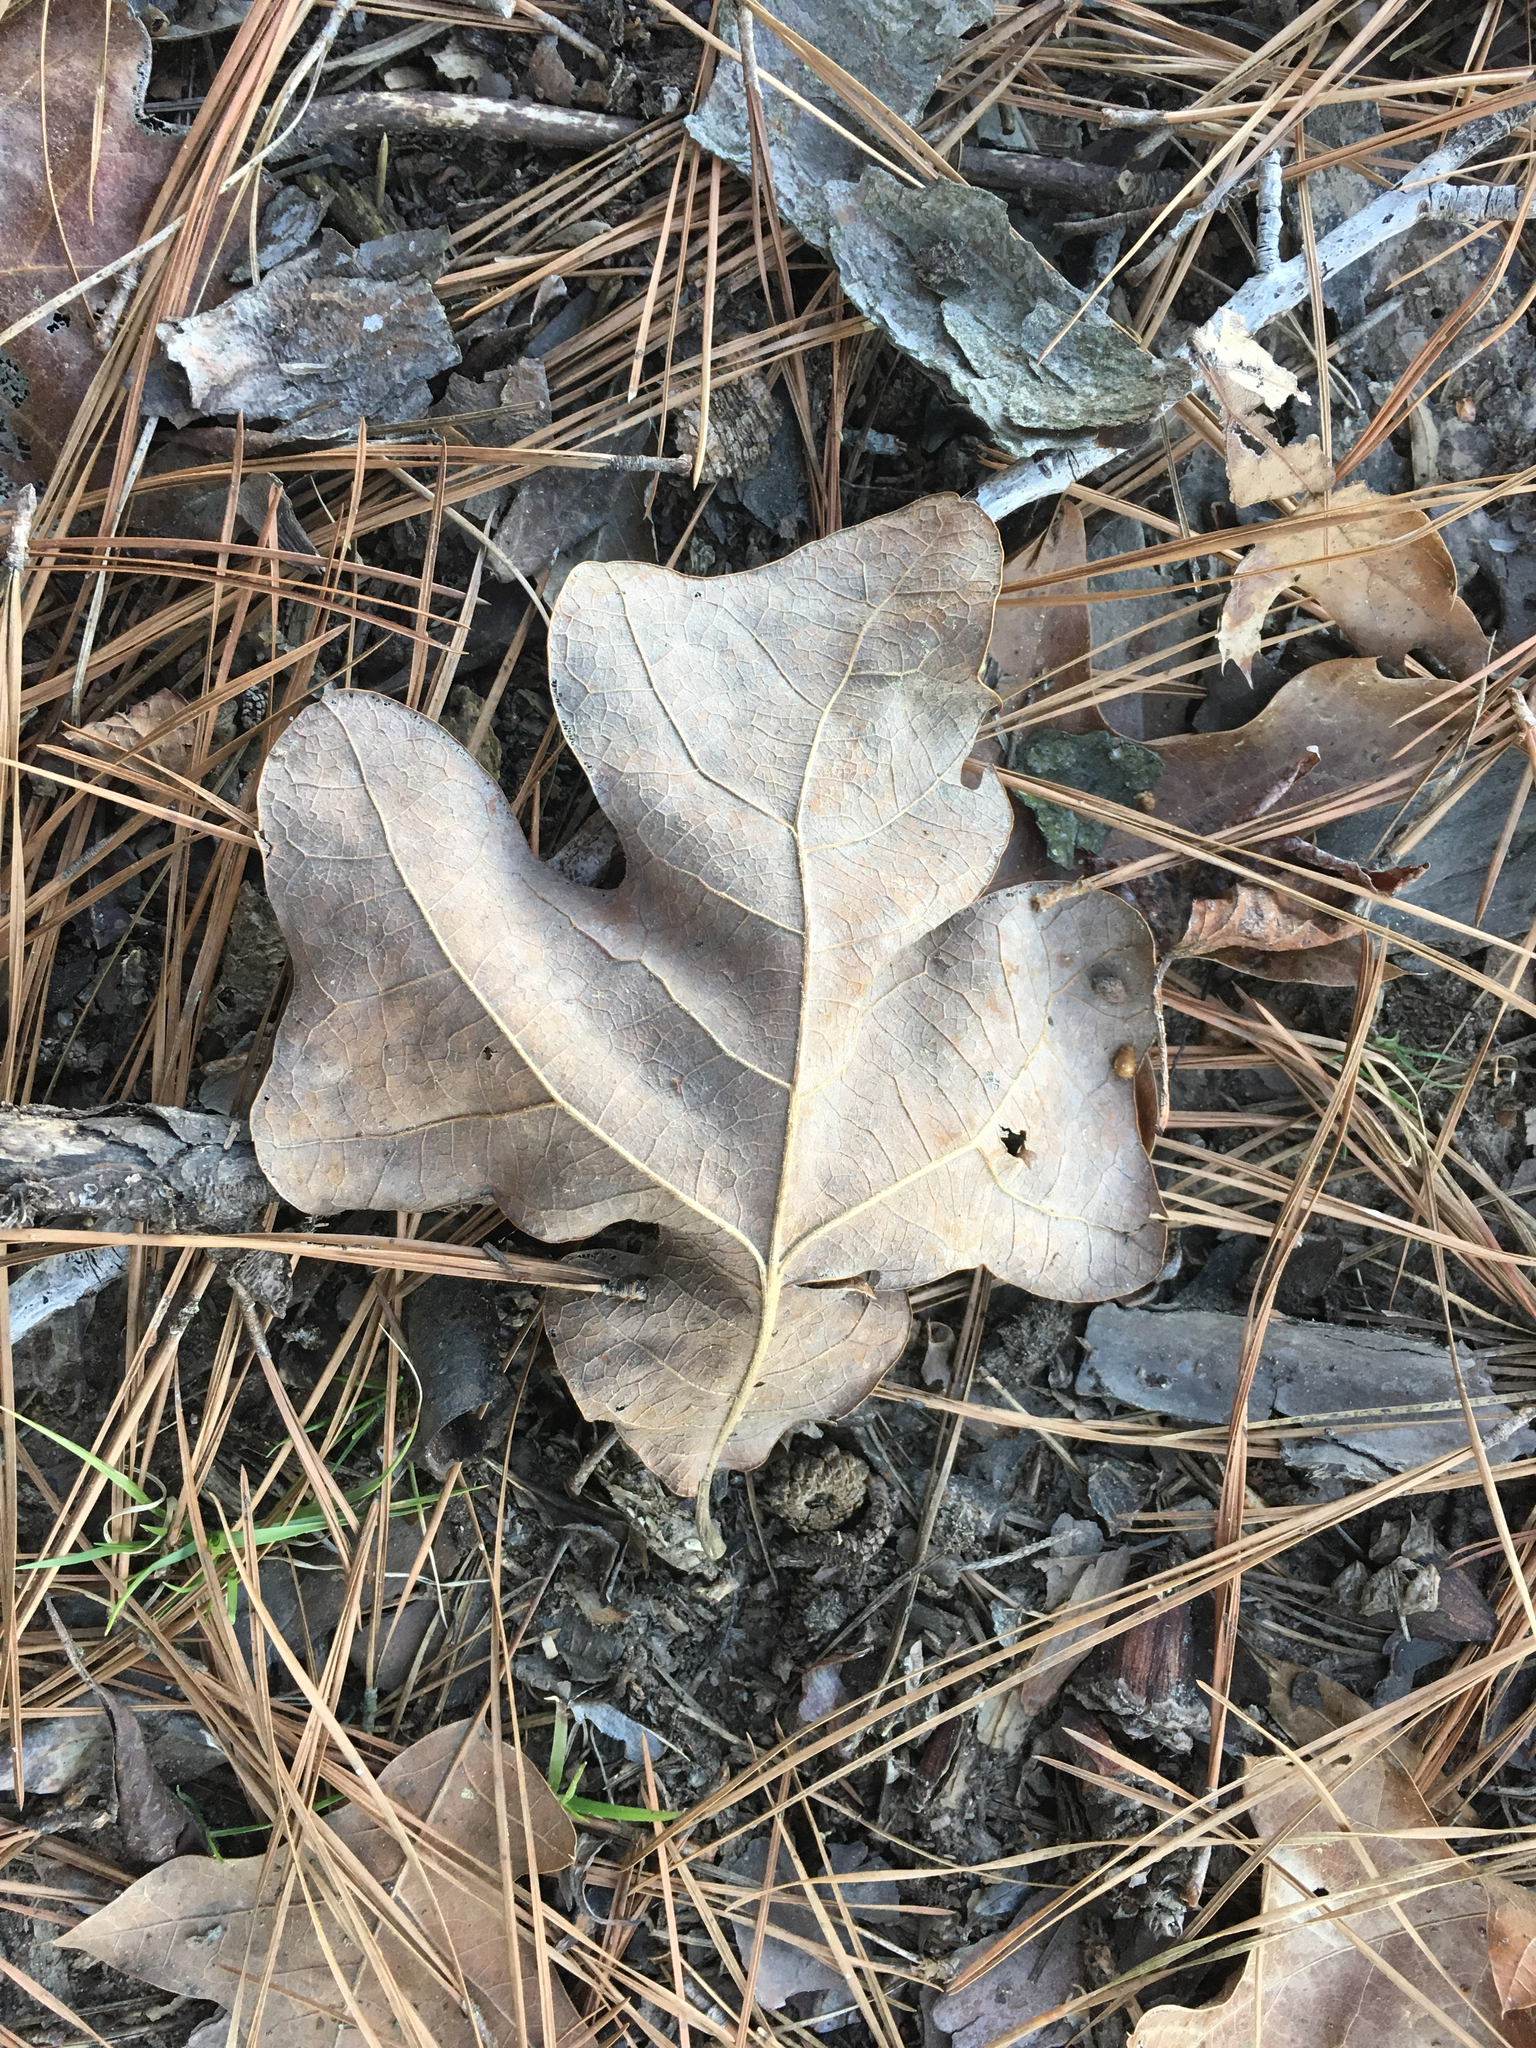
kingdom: Plantae
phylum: Tracheophyta
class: Magnoliopsida
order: Fagales
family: Fagaceae
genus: Quercus
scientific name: Quercus stellata
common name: Post oak
